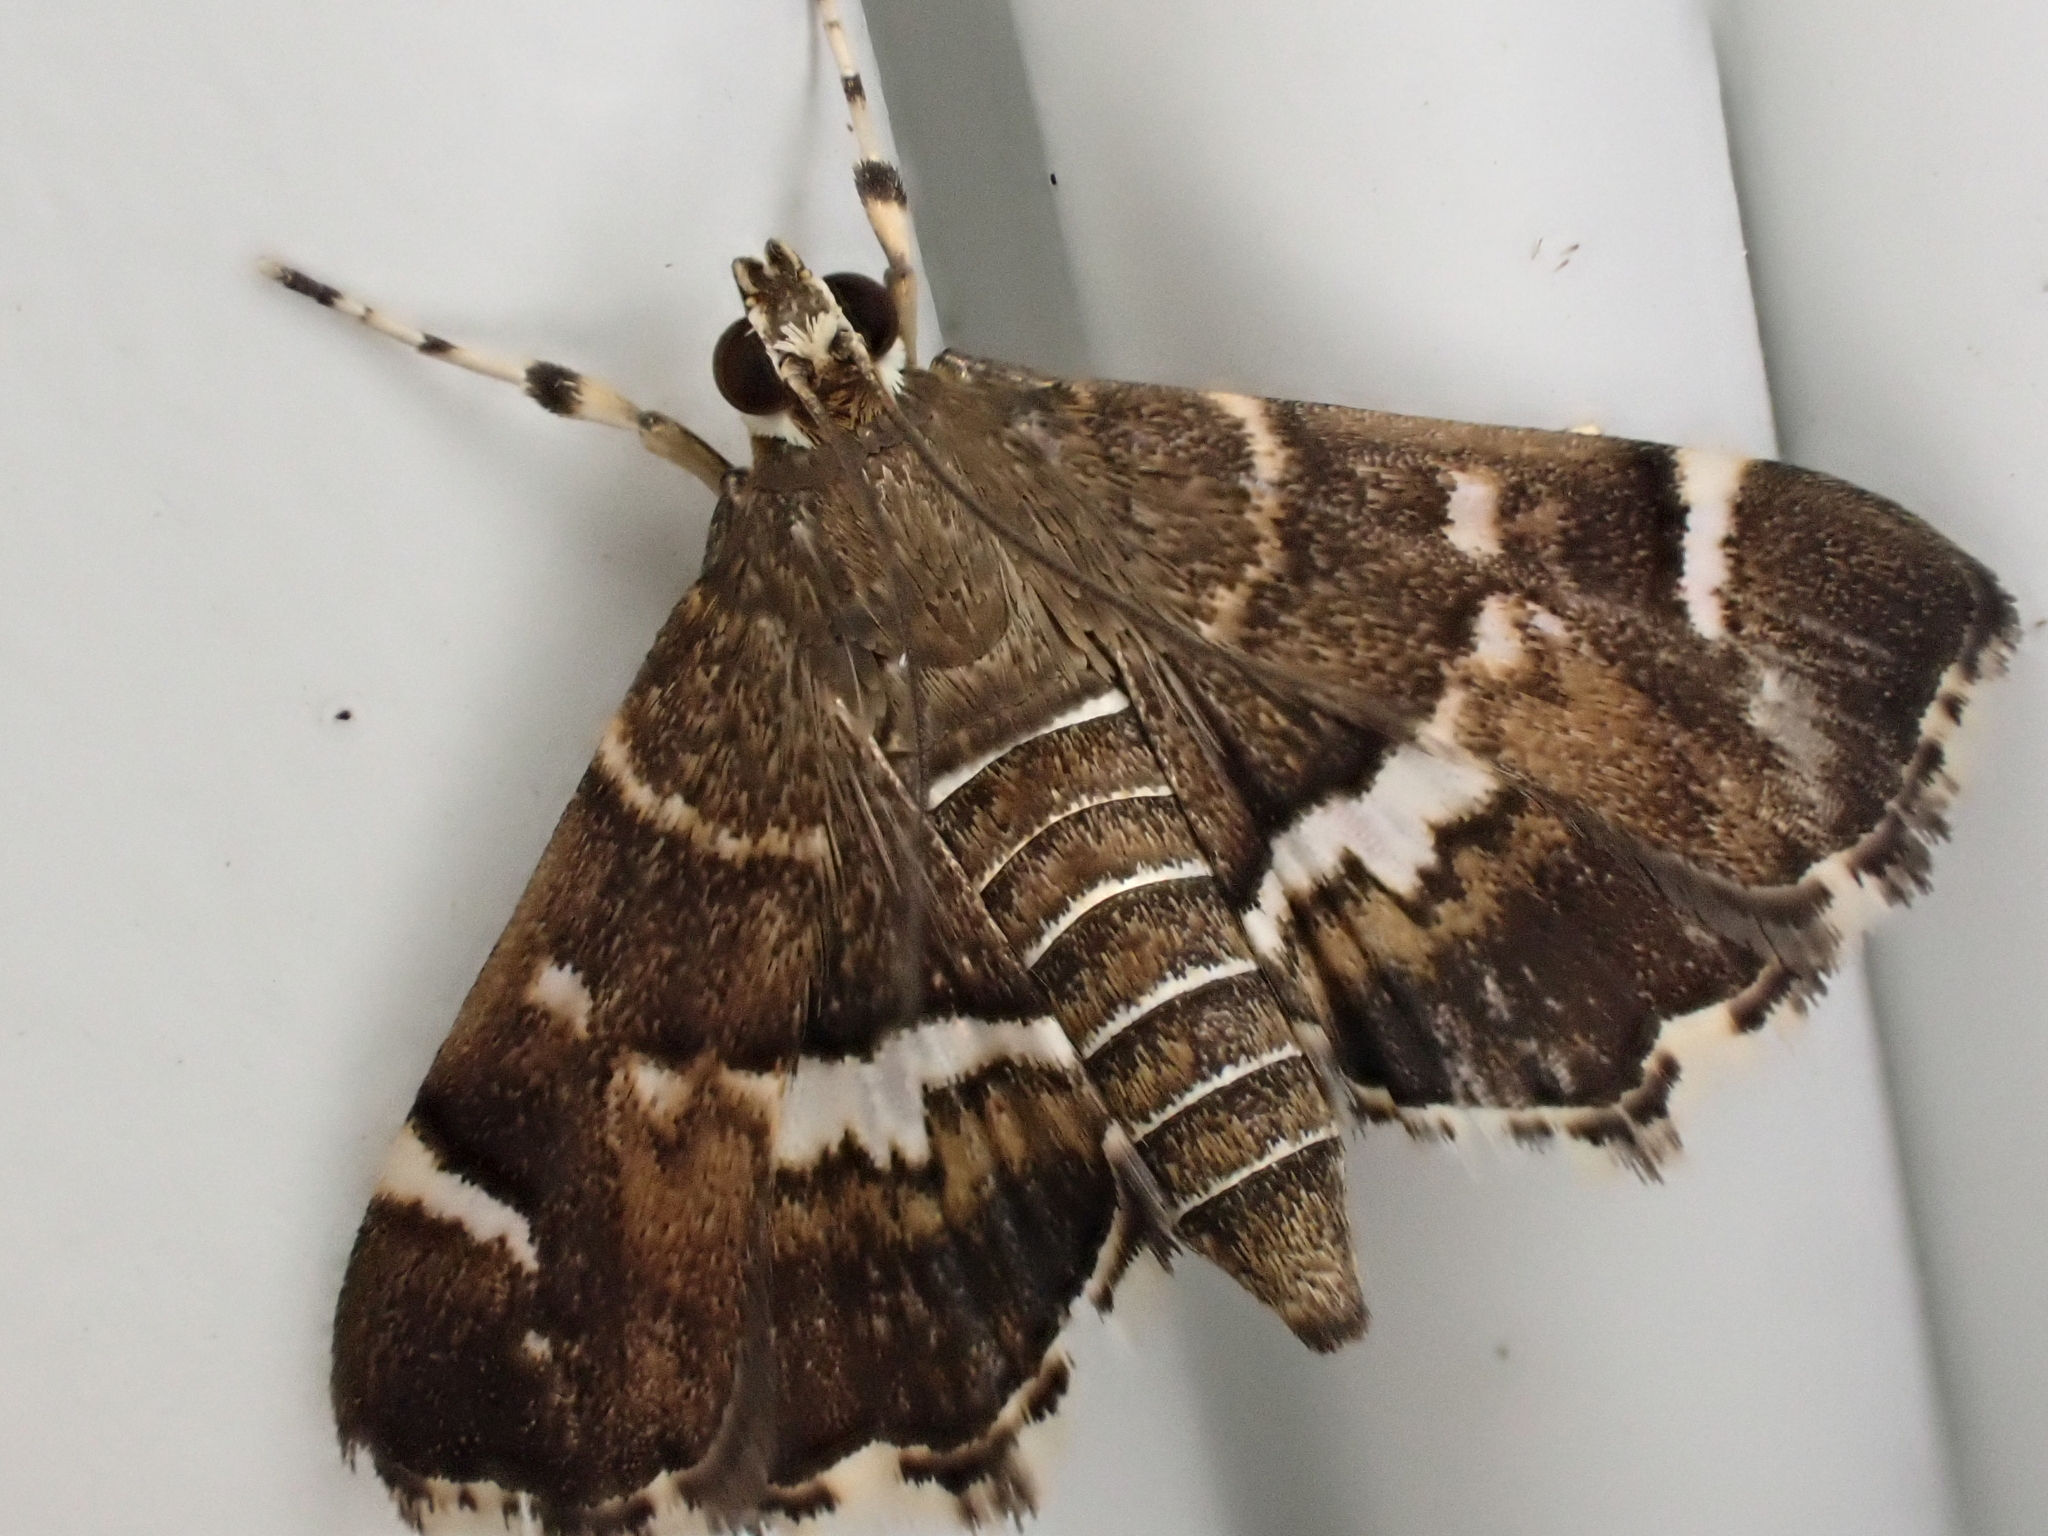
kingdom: Animalia
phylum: Arthropoda
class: Insecta
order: Lepidoptera
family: Crambidae
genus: Hymenia
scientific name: Hymenia perspectalis
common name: Spotted beet webworm
